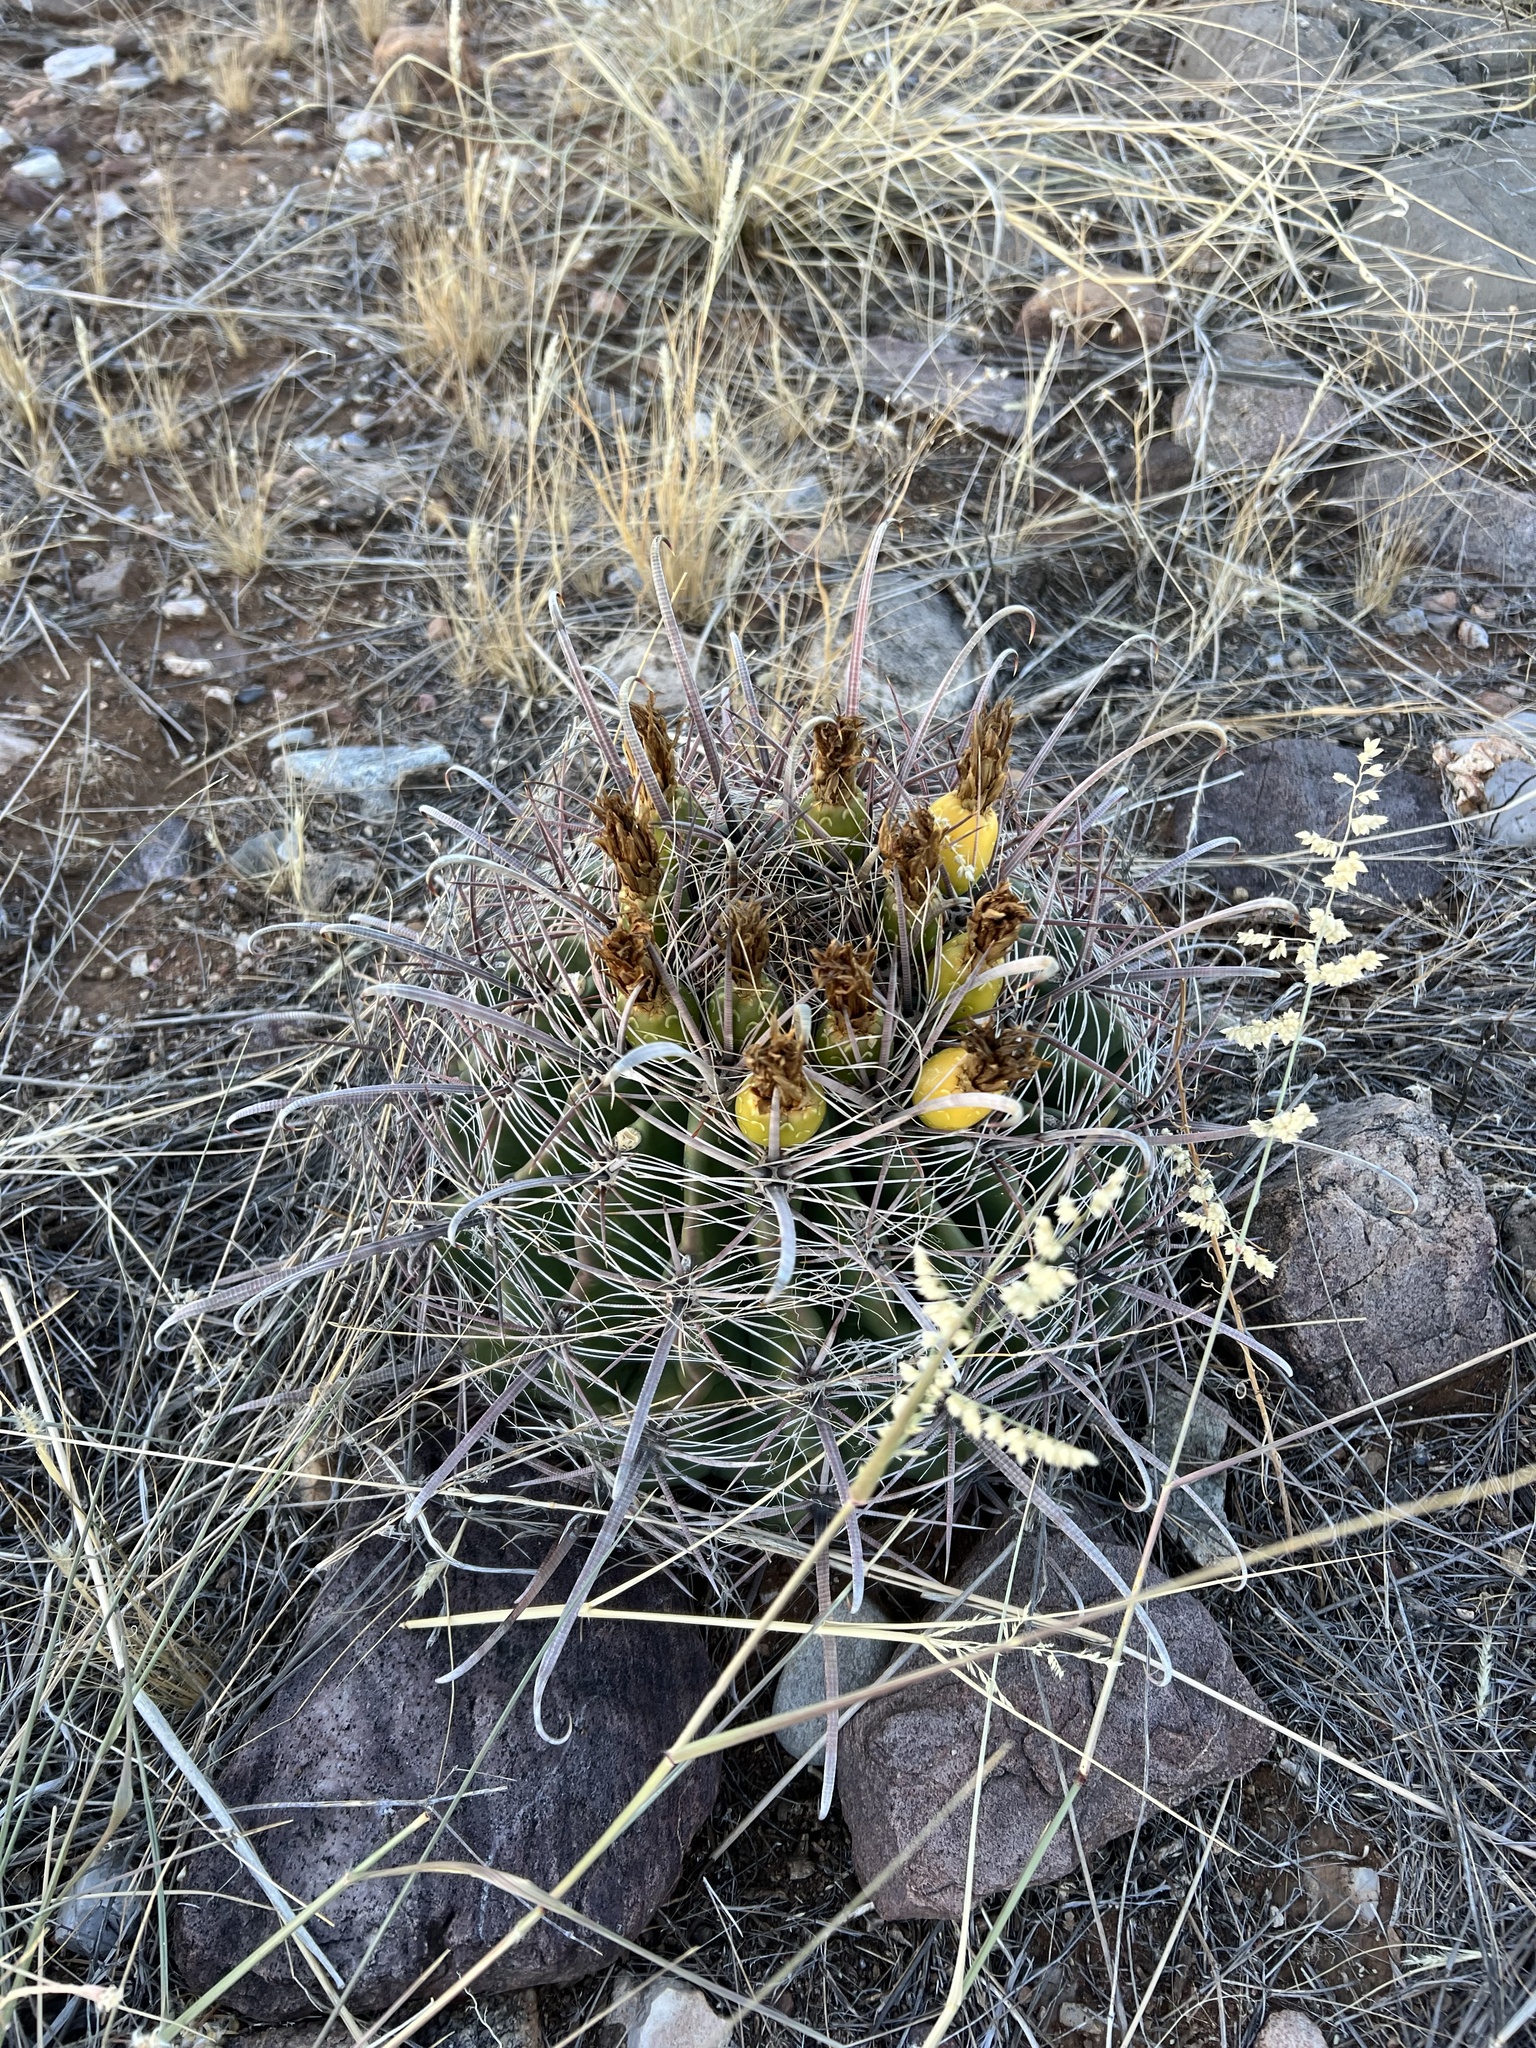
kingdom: Plantae
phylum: Tracheophyta
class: Magnoliopsida
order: Caryophyllales
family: Cactaceae
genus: Ferocactus
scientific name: Ferocactus wislizeni
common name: Candy barrel cactus
